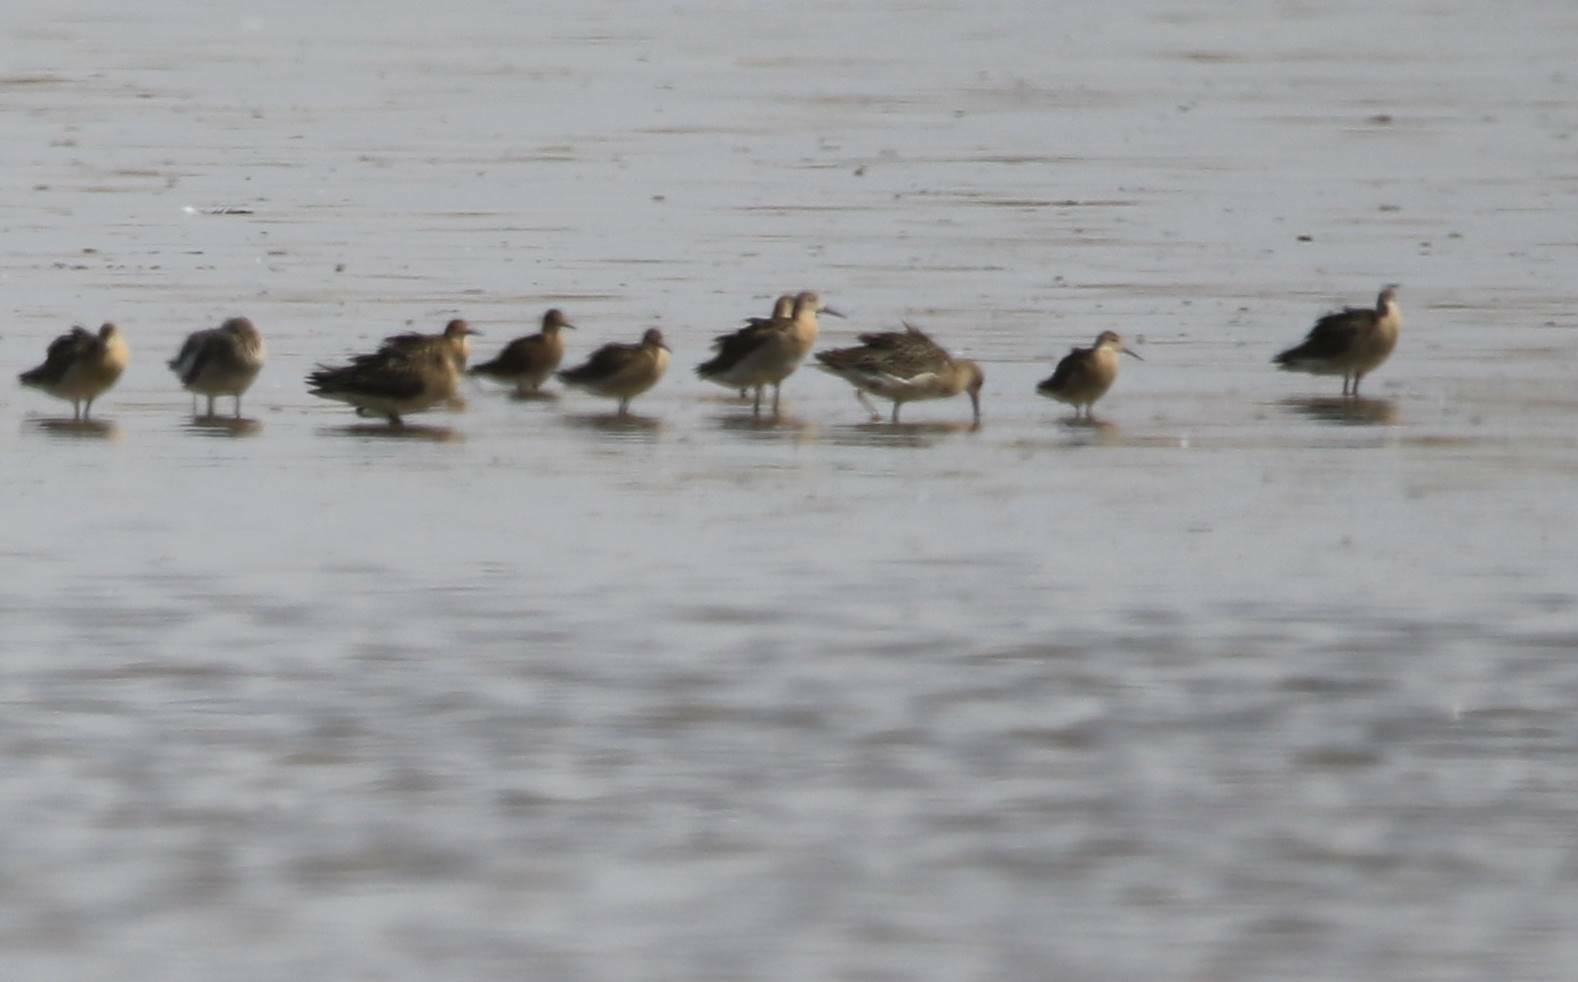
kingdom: Animalia
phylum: Chordata
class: Aves
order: Charadriiformes
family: Scolopacidae
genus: Calidris
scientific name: Calidris pugnax
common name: Ruff
